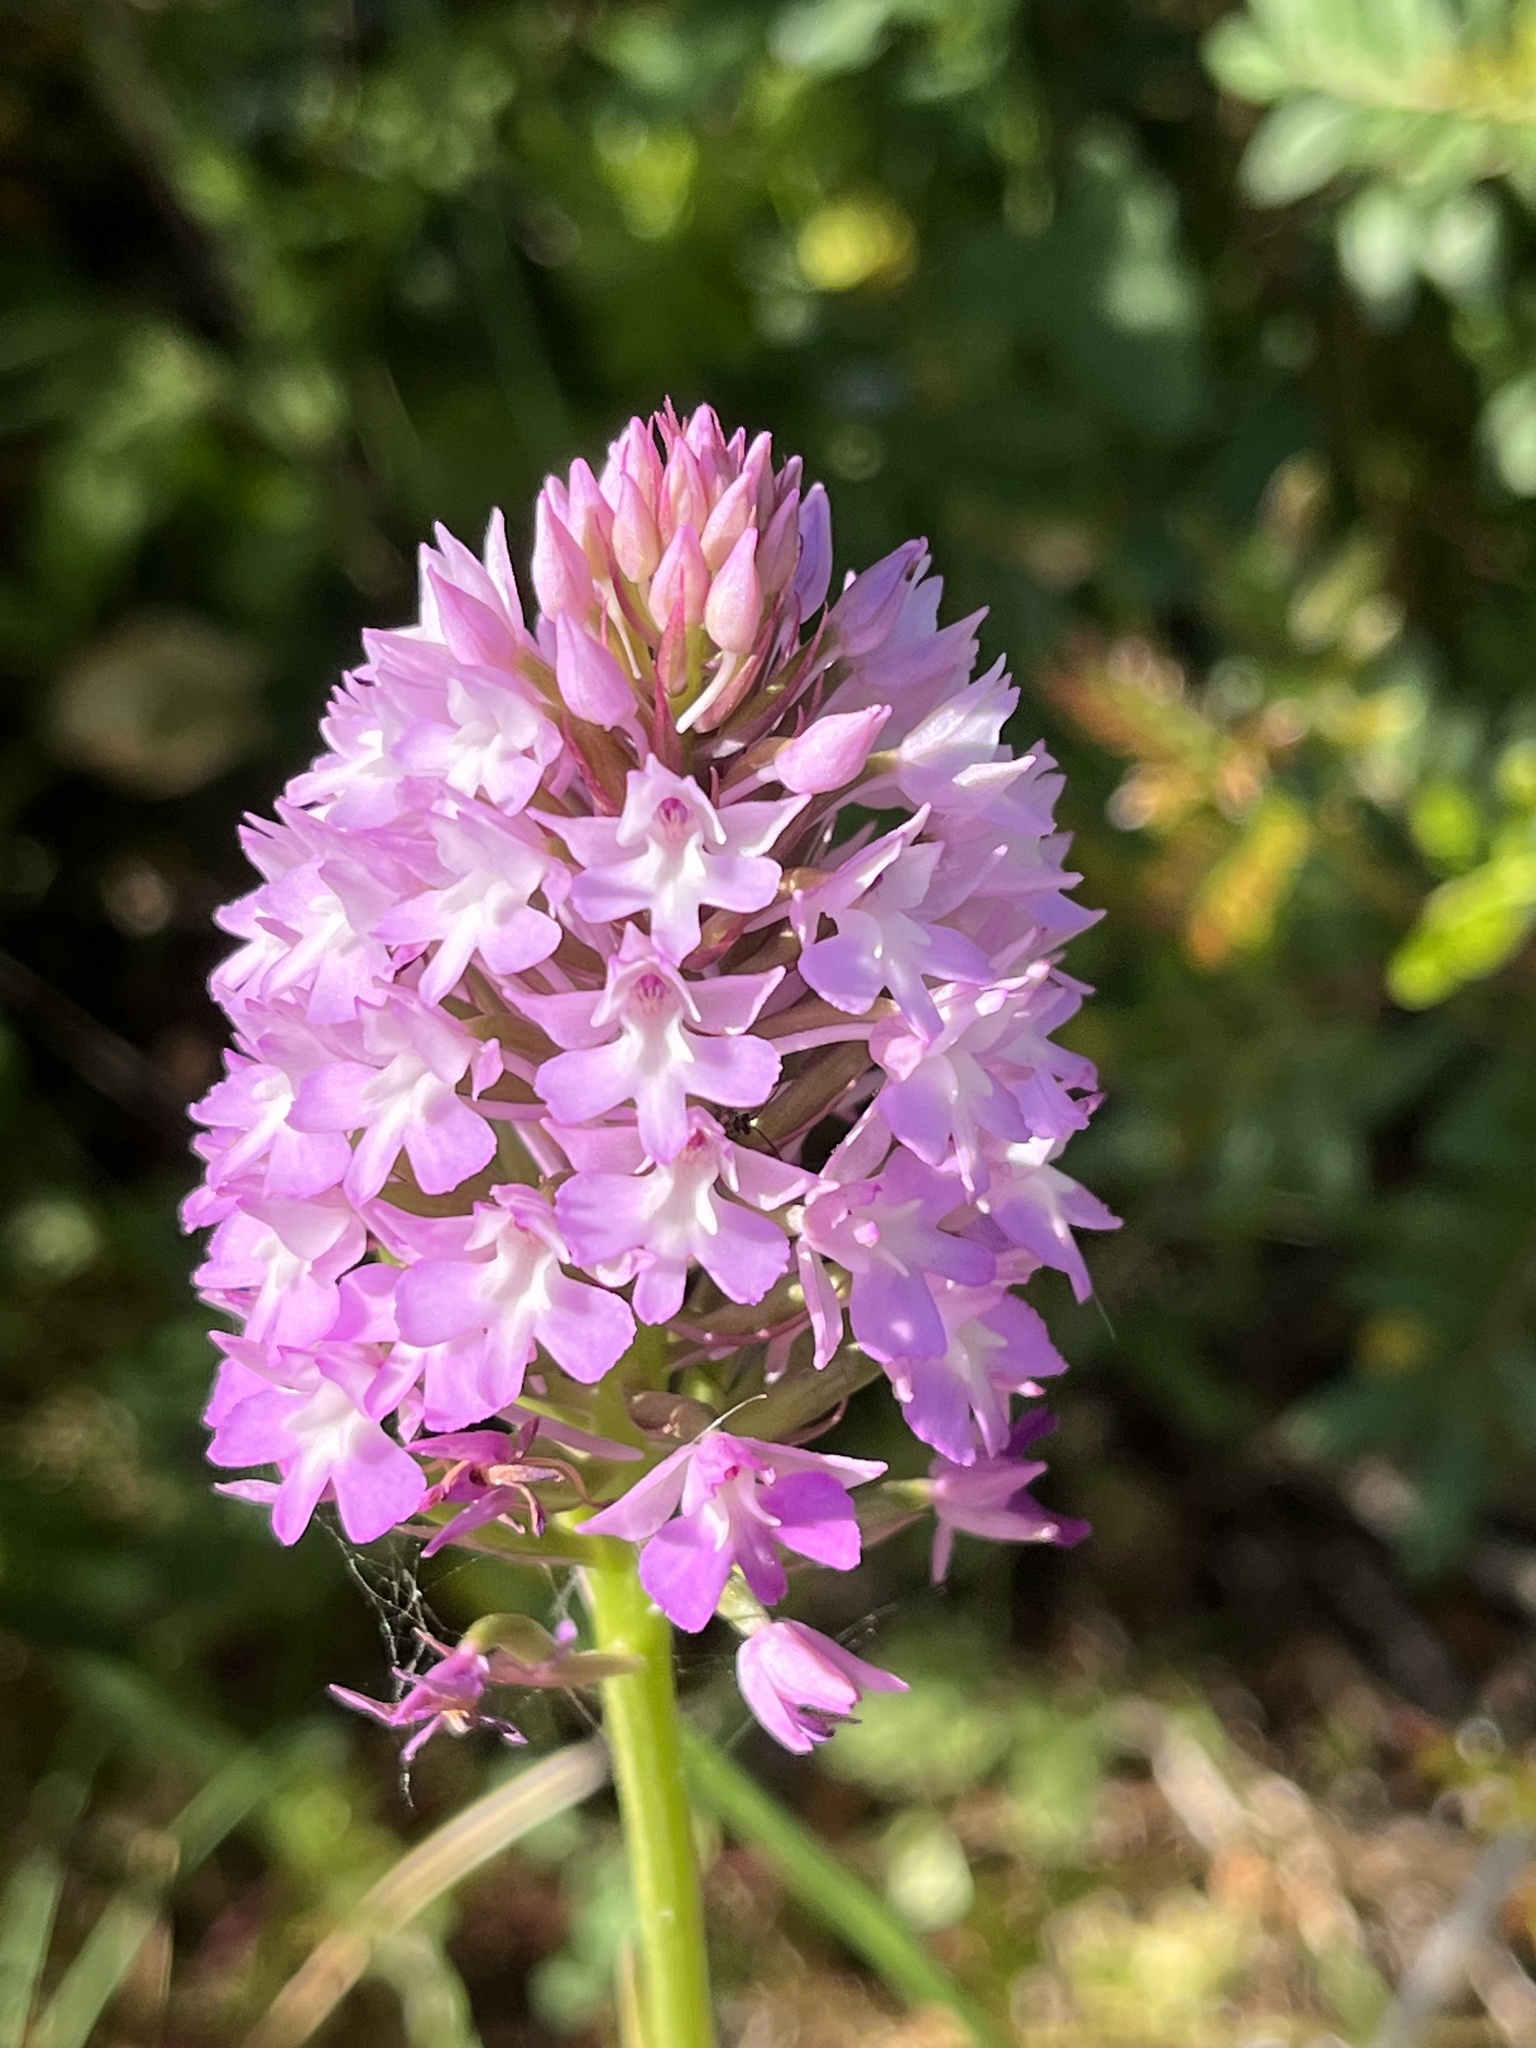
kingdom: Plantae
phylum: Tracheophyta
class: Liliopsida
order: Asparagales
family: Orchidaceae
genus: Anacamptis
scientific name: Anacamptis pyramidalis
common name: Pyramidal orchid
